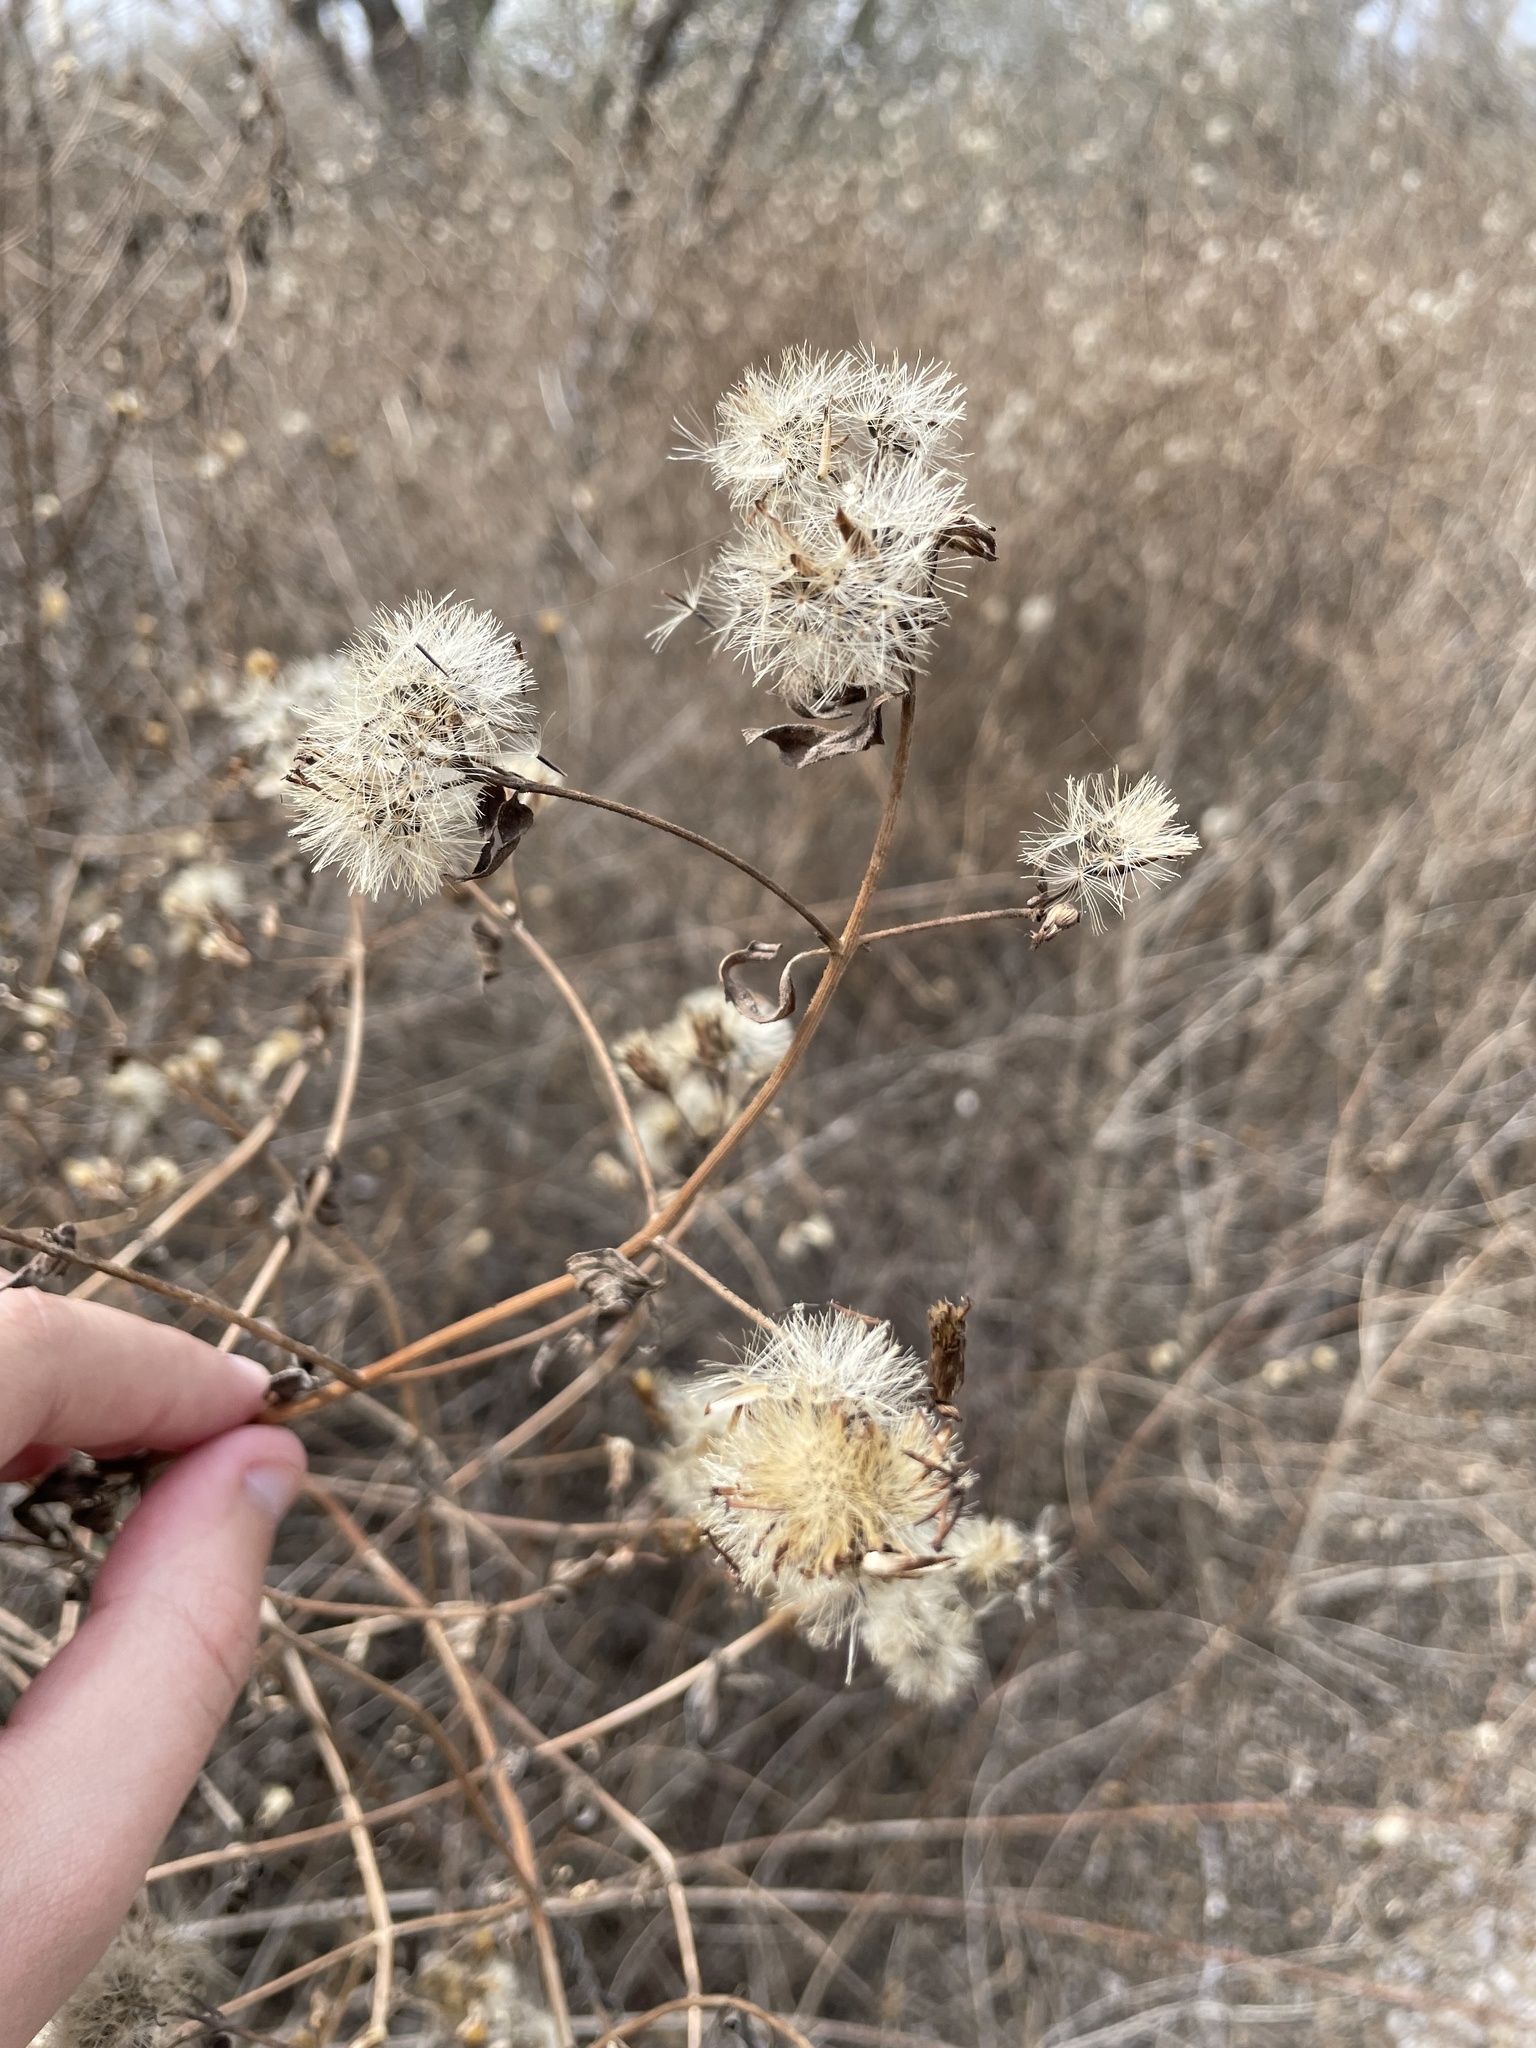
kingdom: Plantae
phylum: Tracheophyta
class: Magnoliopsida
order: Asterales
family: Asteraceae
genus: Chromolaena
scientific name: Chromolaena odorata
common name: Siamweed
